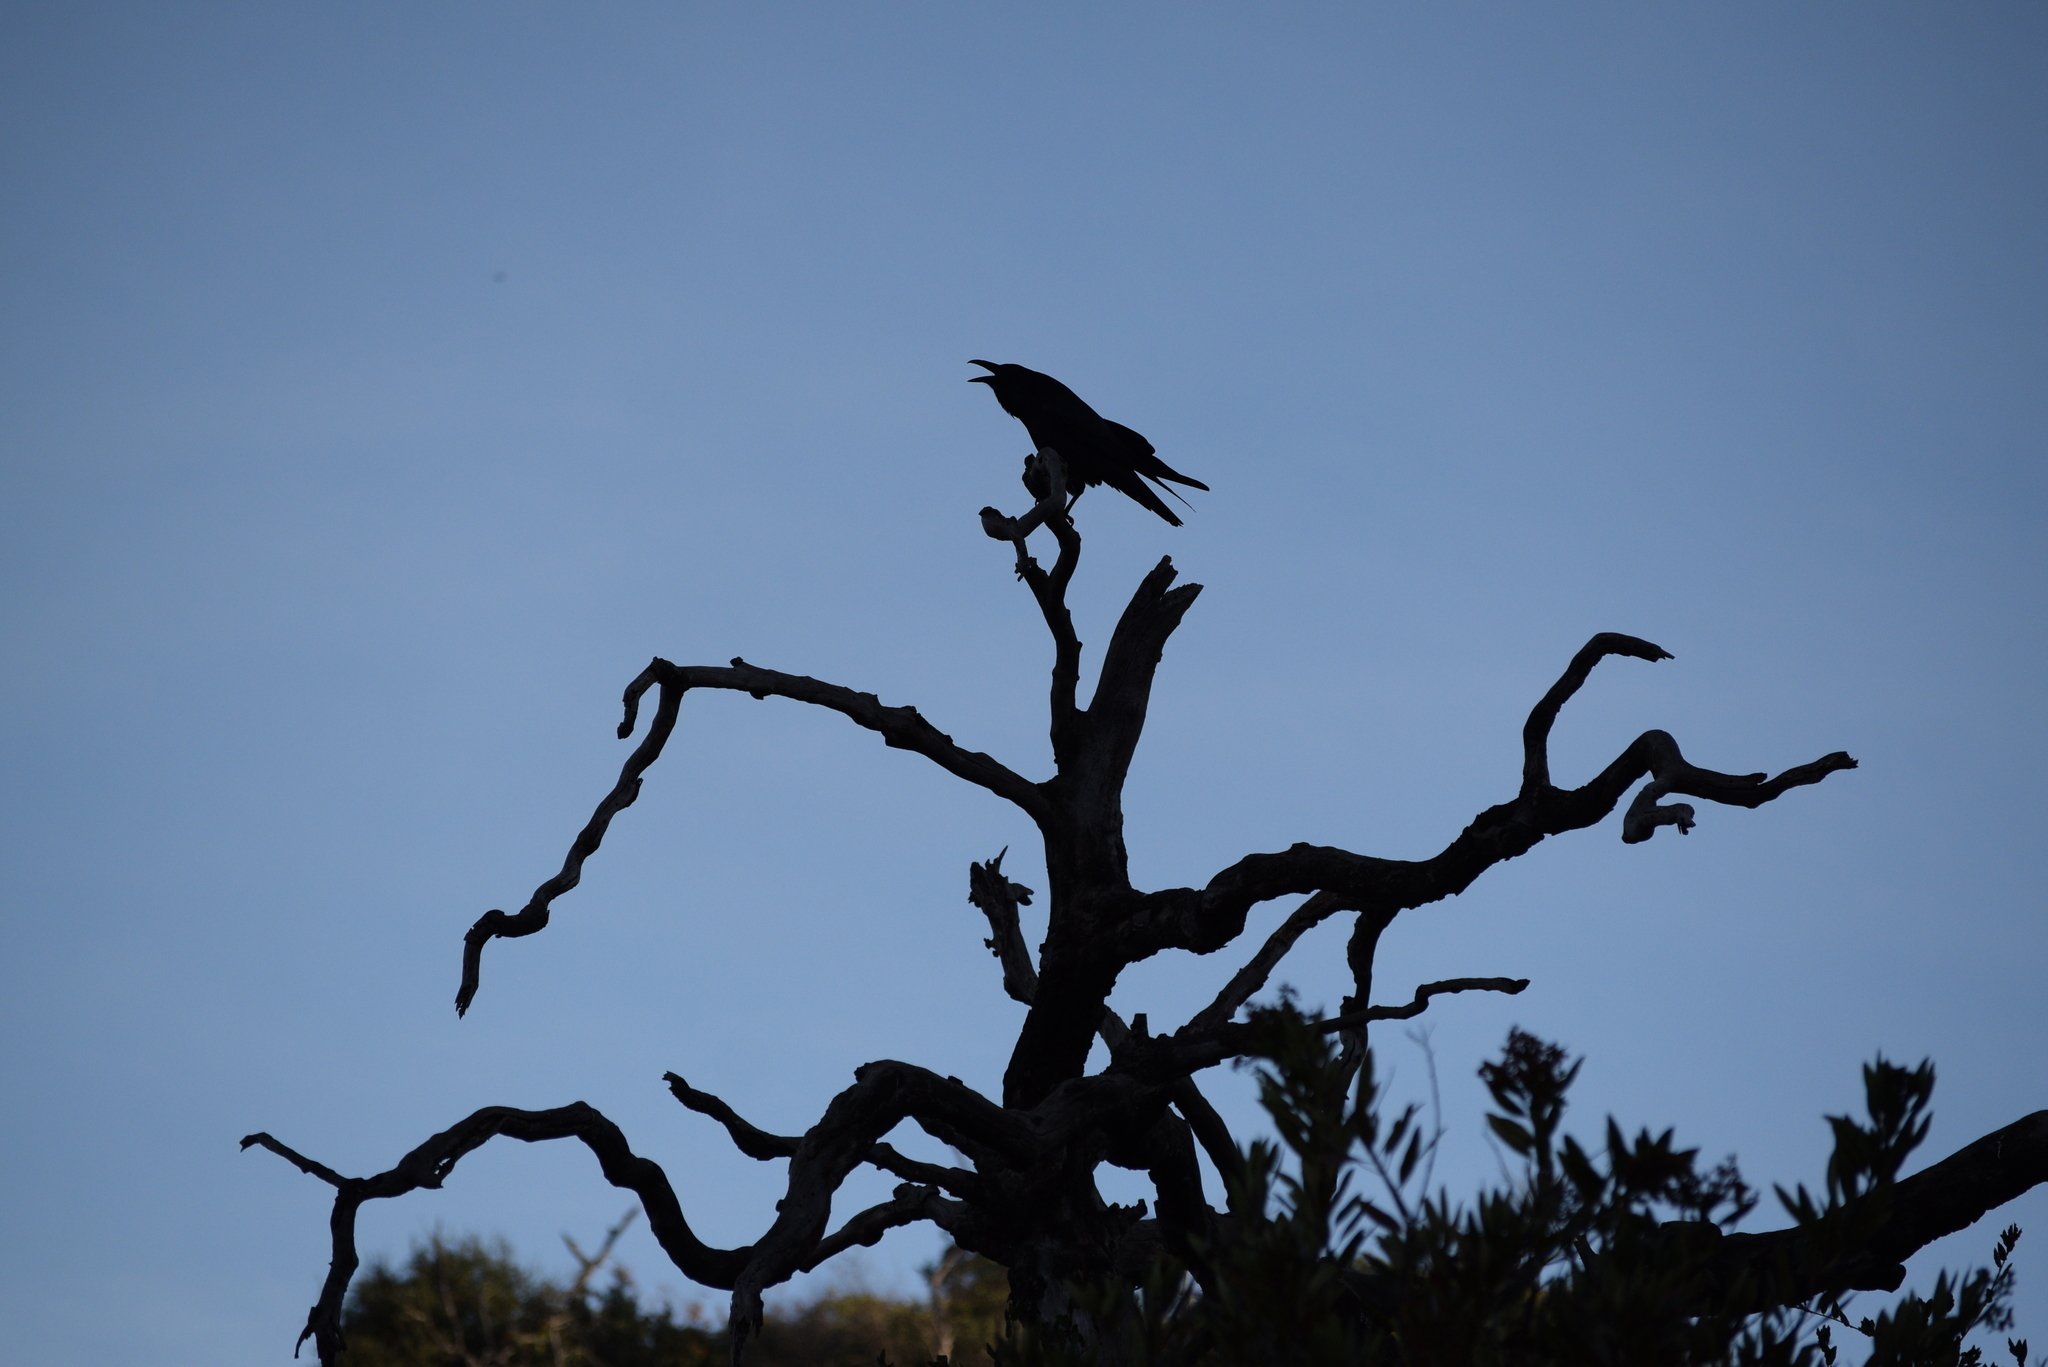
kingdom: Animalia
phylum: Chordata
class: Aves
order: Passeriformes
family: Corvidae
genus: Corvus
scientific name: Corvus corax
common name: Common raven
